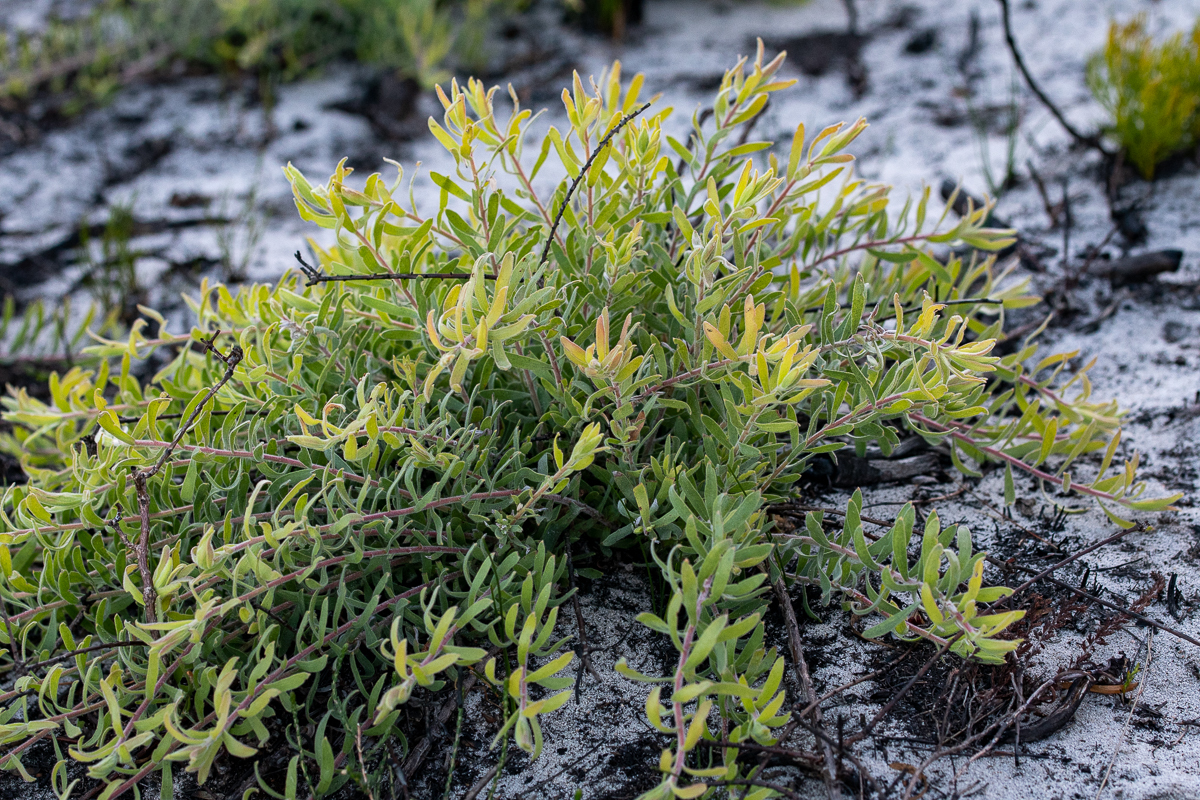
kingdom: Plantae
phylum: Tracheophyta
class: Magnoliopsida
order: Proteales
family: Proteaceae
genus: Leucospermum
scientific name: Leucospermum prostratum
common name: Yellow-trailing pincushion
